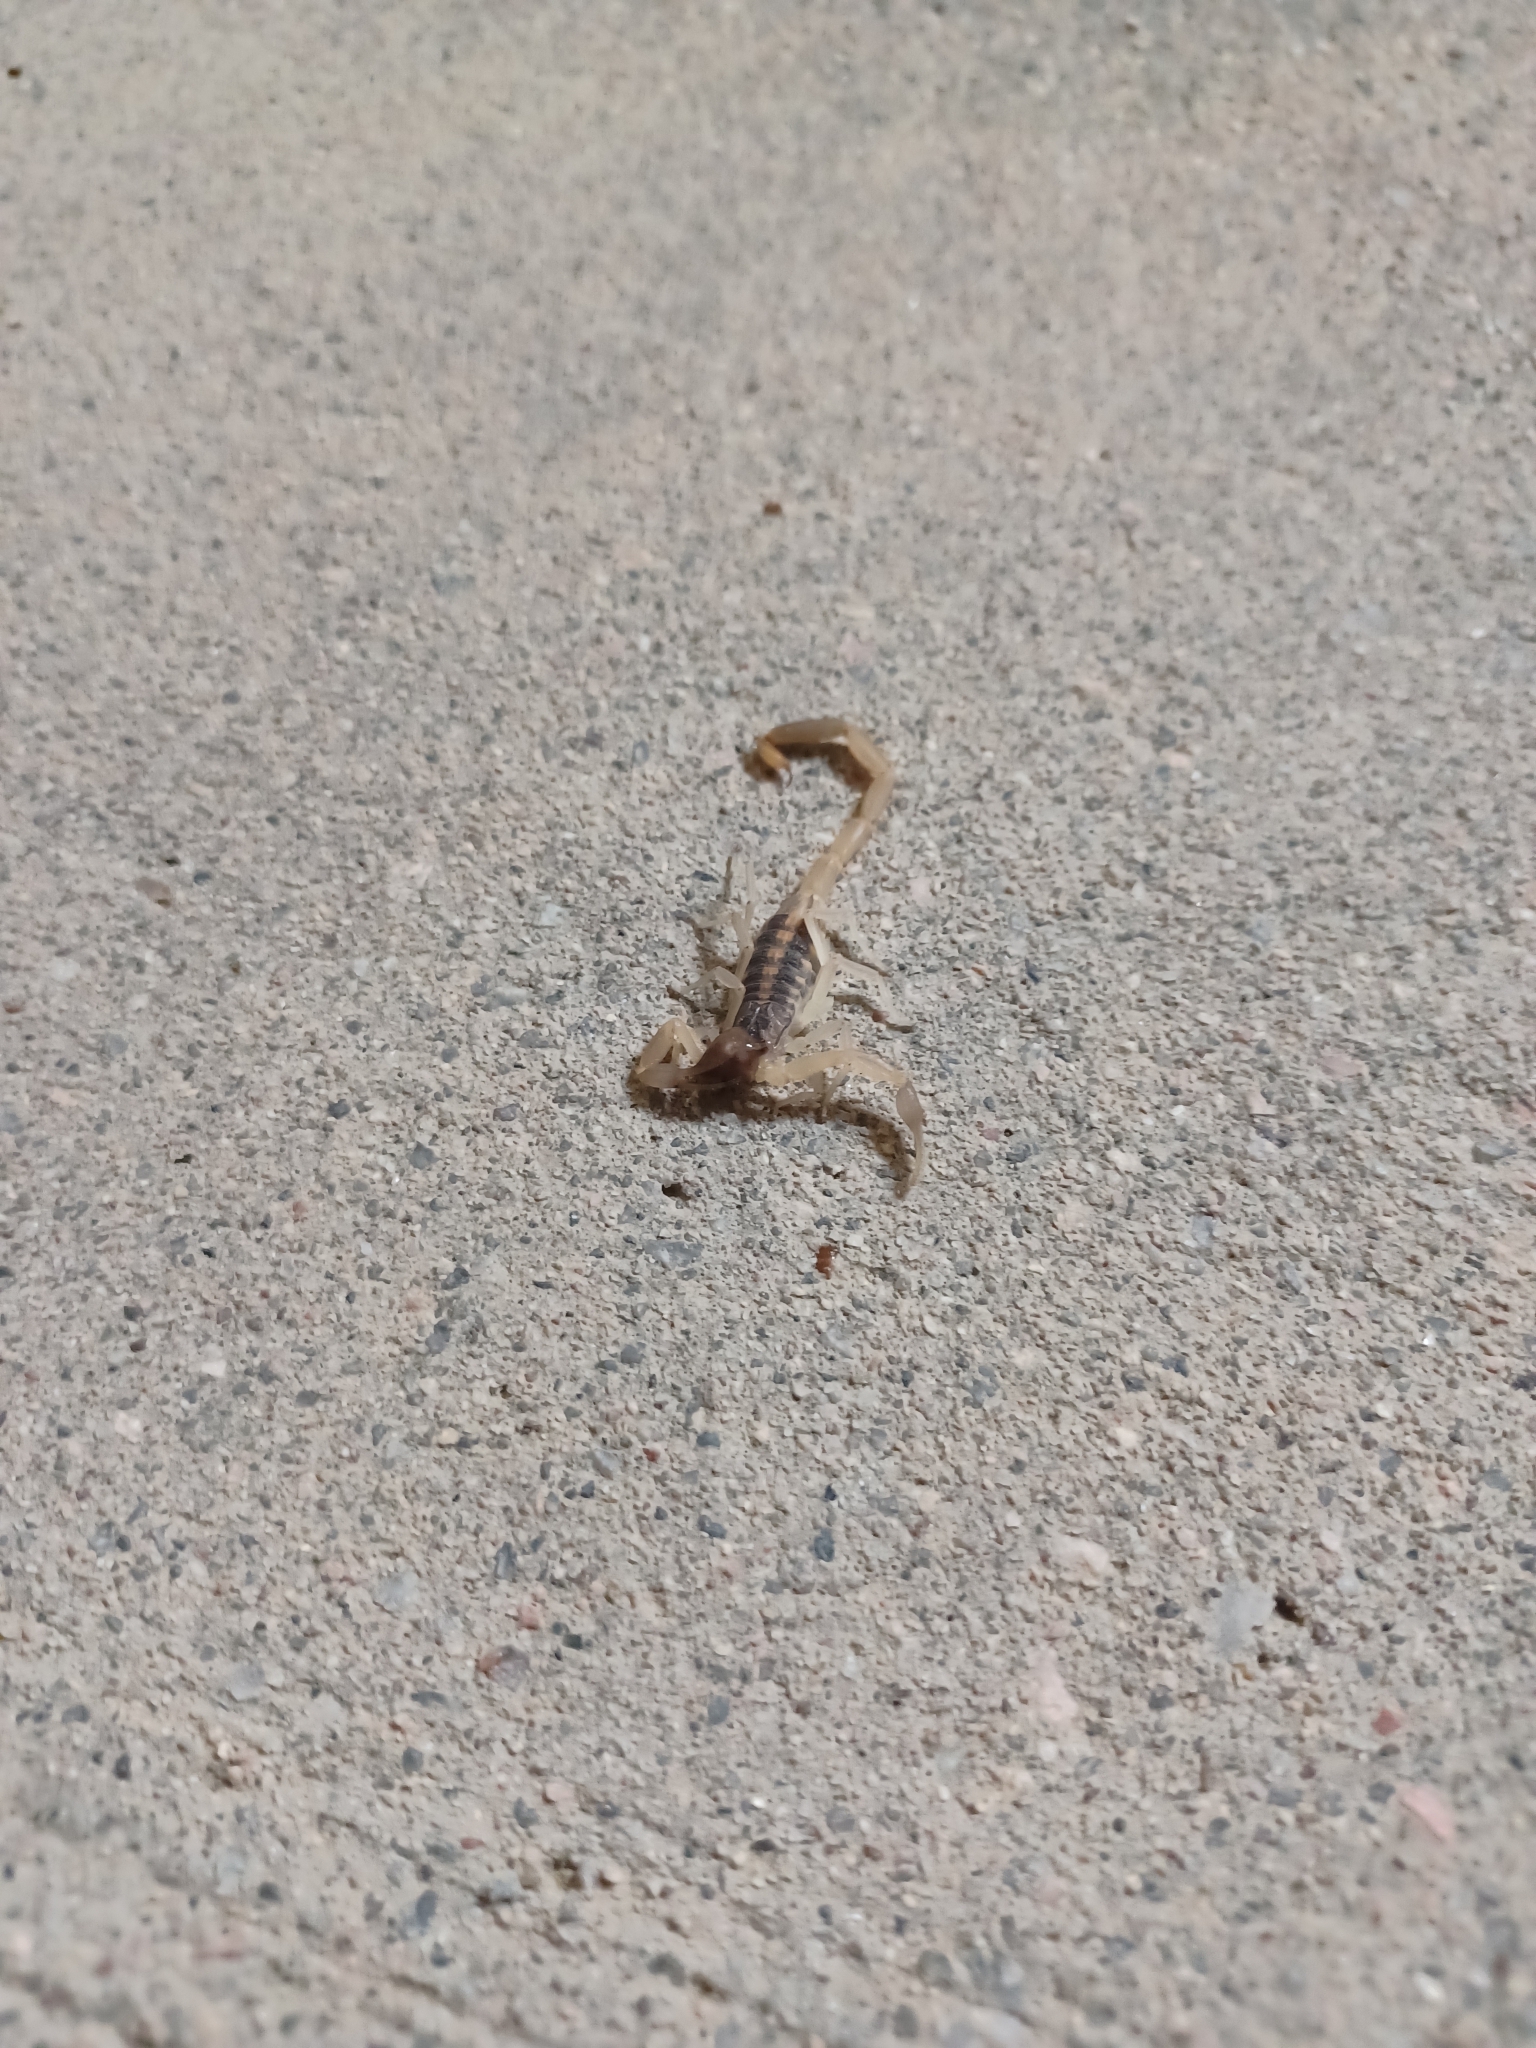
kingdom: Animalia
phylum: Arthropoda
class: Arachnida
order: Scorpiones
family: Buthidae
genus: Centruroides
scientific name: Centruroides vittatus
